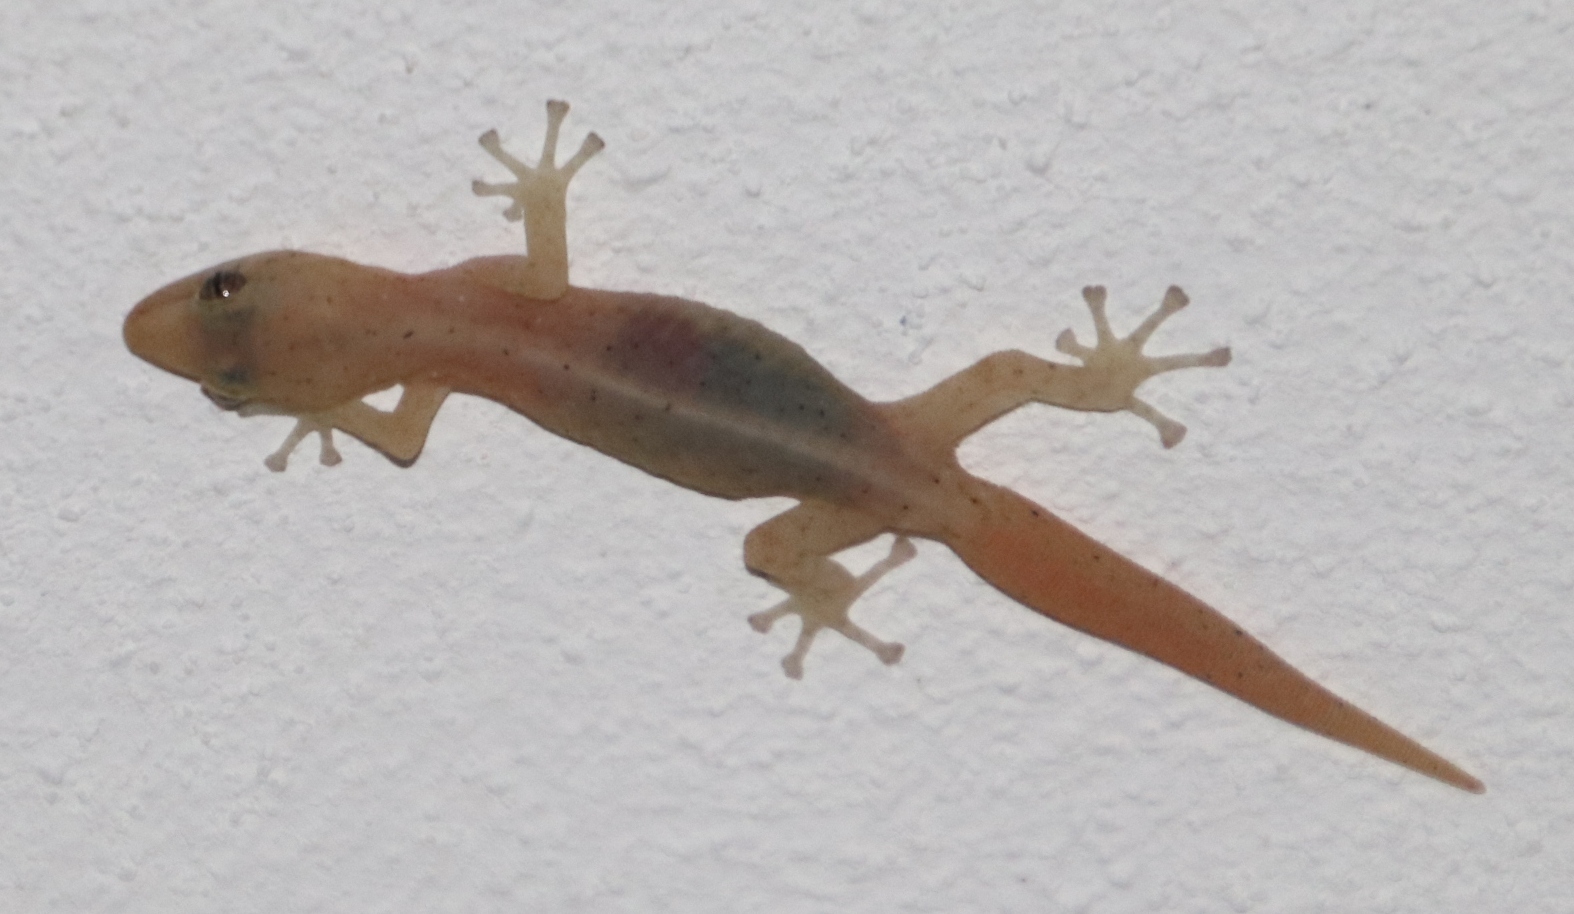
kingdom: Animalia
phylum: Chordata
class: Squamata
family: Gekkonidae
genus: Afrogecko
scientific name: Afrogecko porphyreus
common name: Marbled leaf-toed gecko
